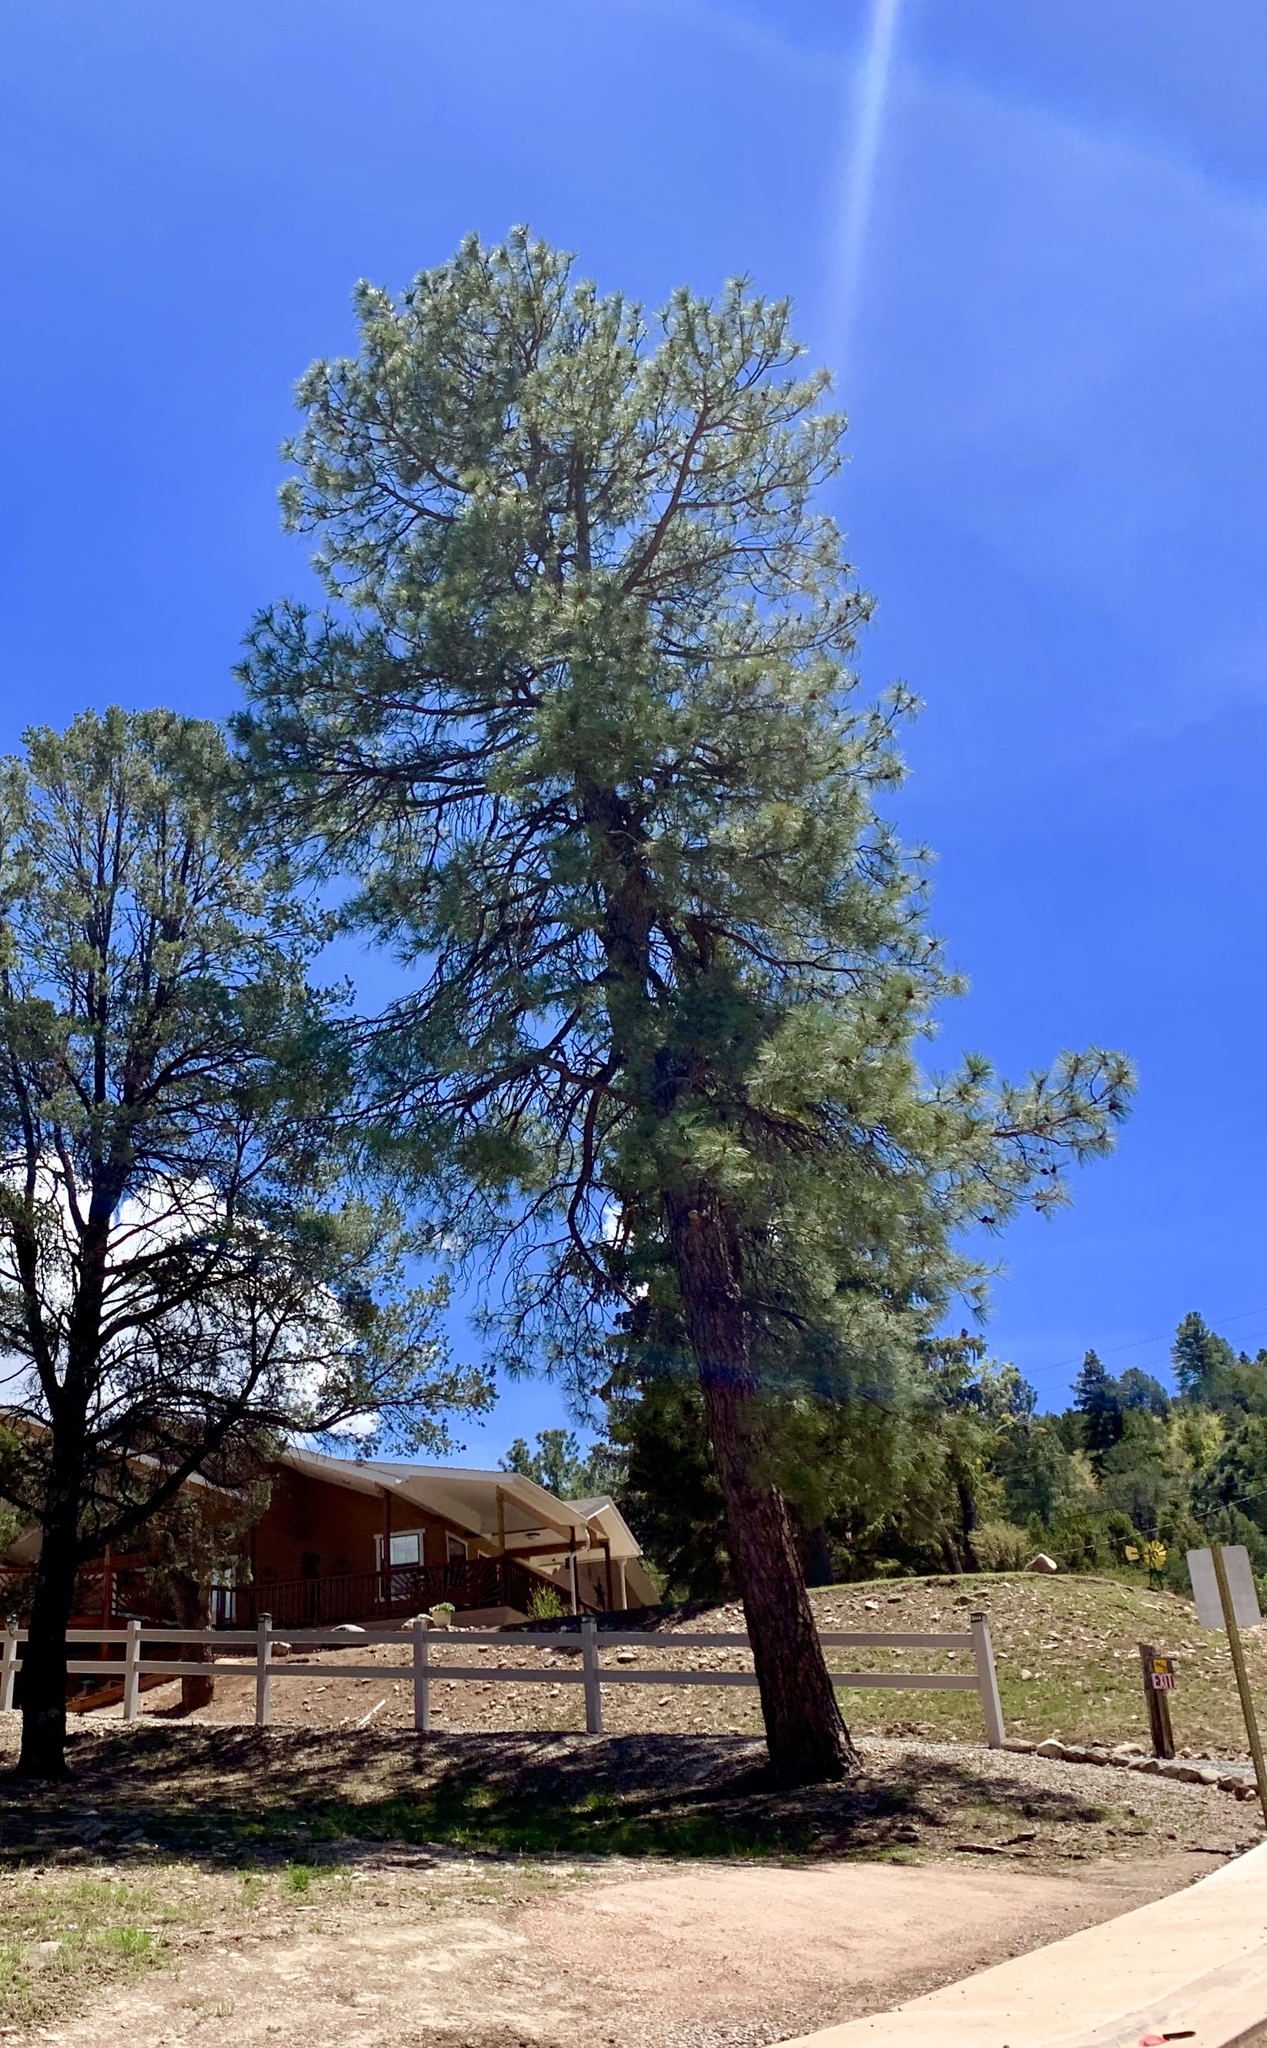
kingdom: Plantae
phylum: Tracheophyta
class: Pinopsida
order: Pinales
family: Pinaceae
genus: Pinus
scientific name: Pinus ponderosa
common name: Western yellow-pine
